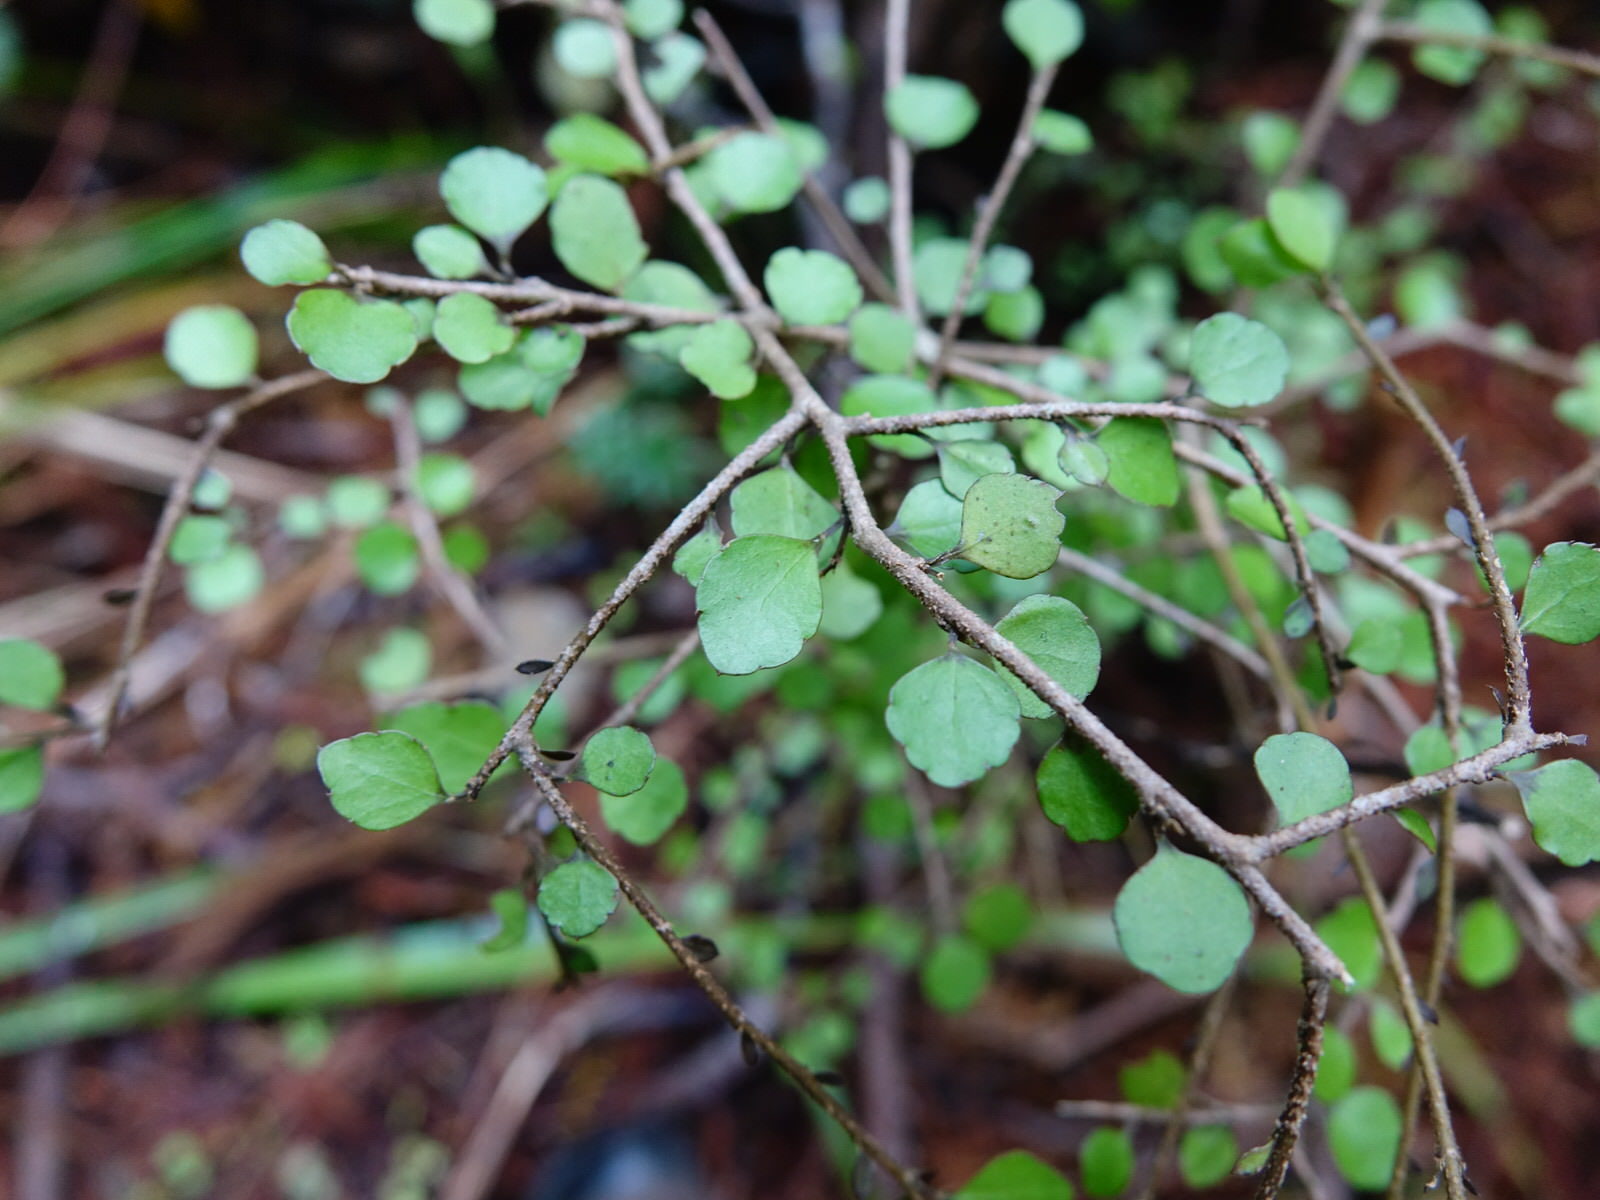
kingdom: Plantae
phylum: Tracheophyta
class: Magnoliopsida
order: Apiales
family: Araliaceae
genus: Raukaua
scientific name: Raukaua anomalus
